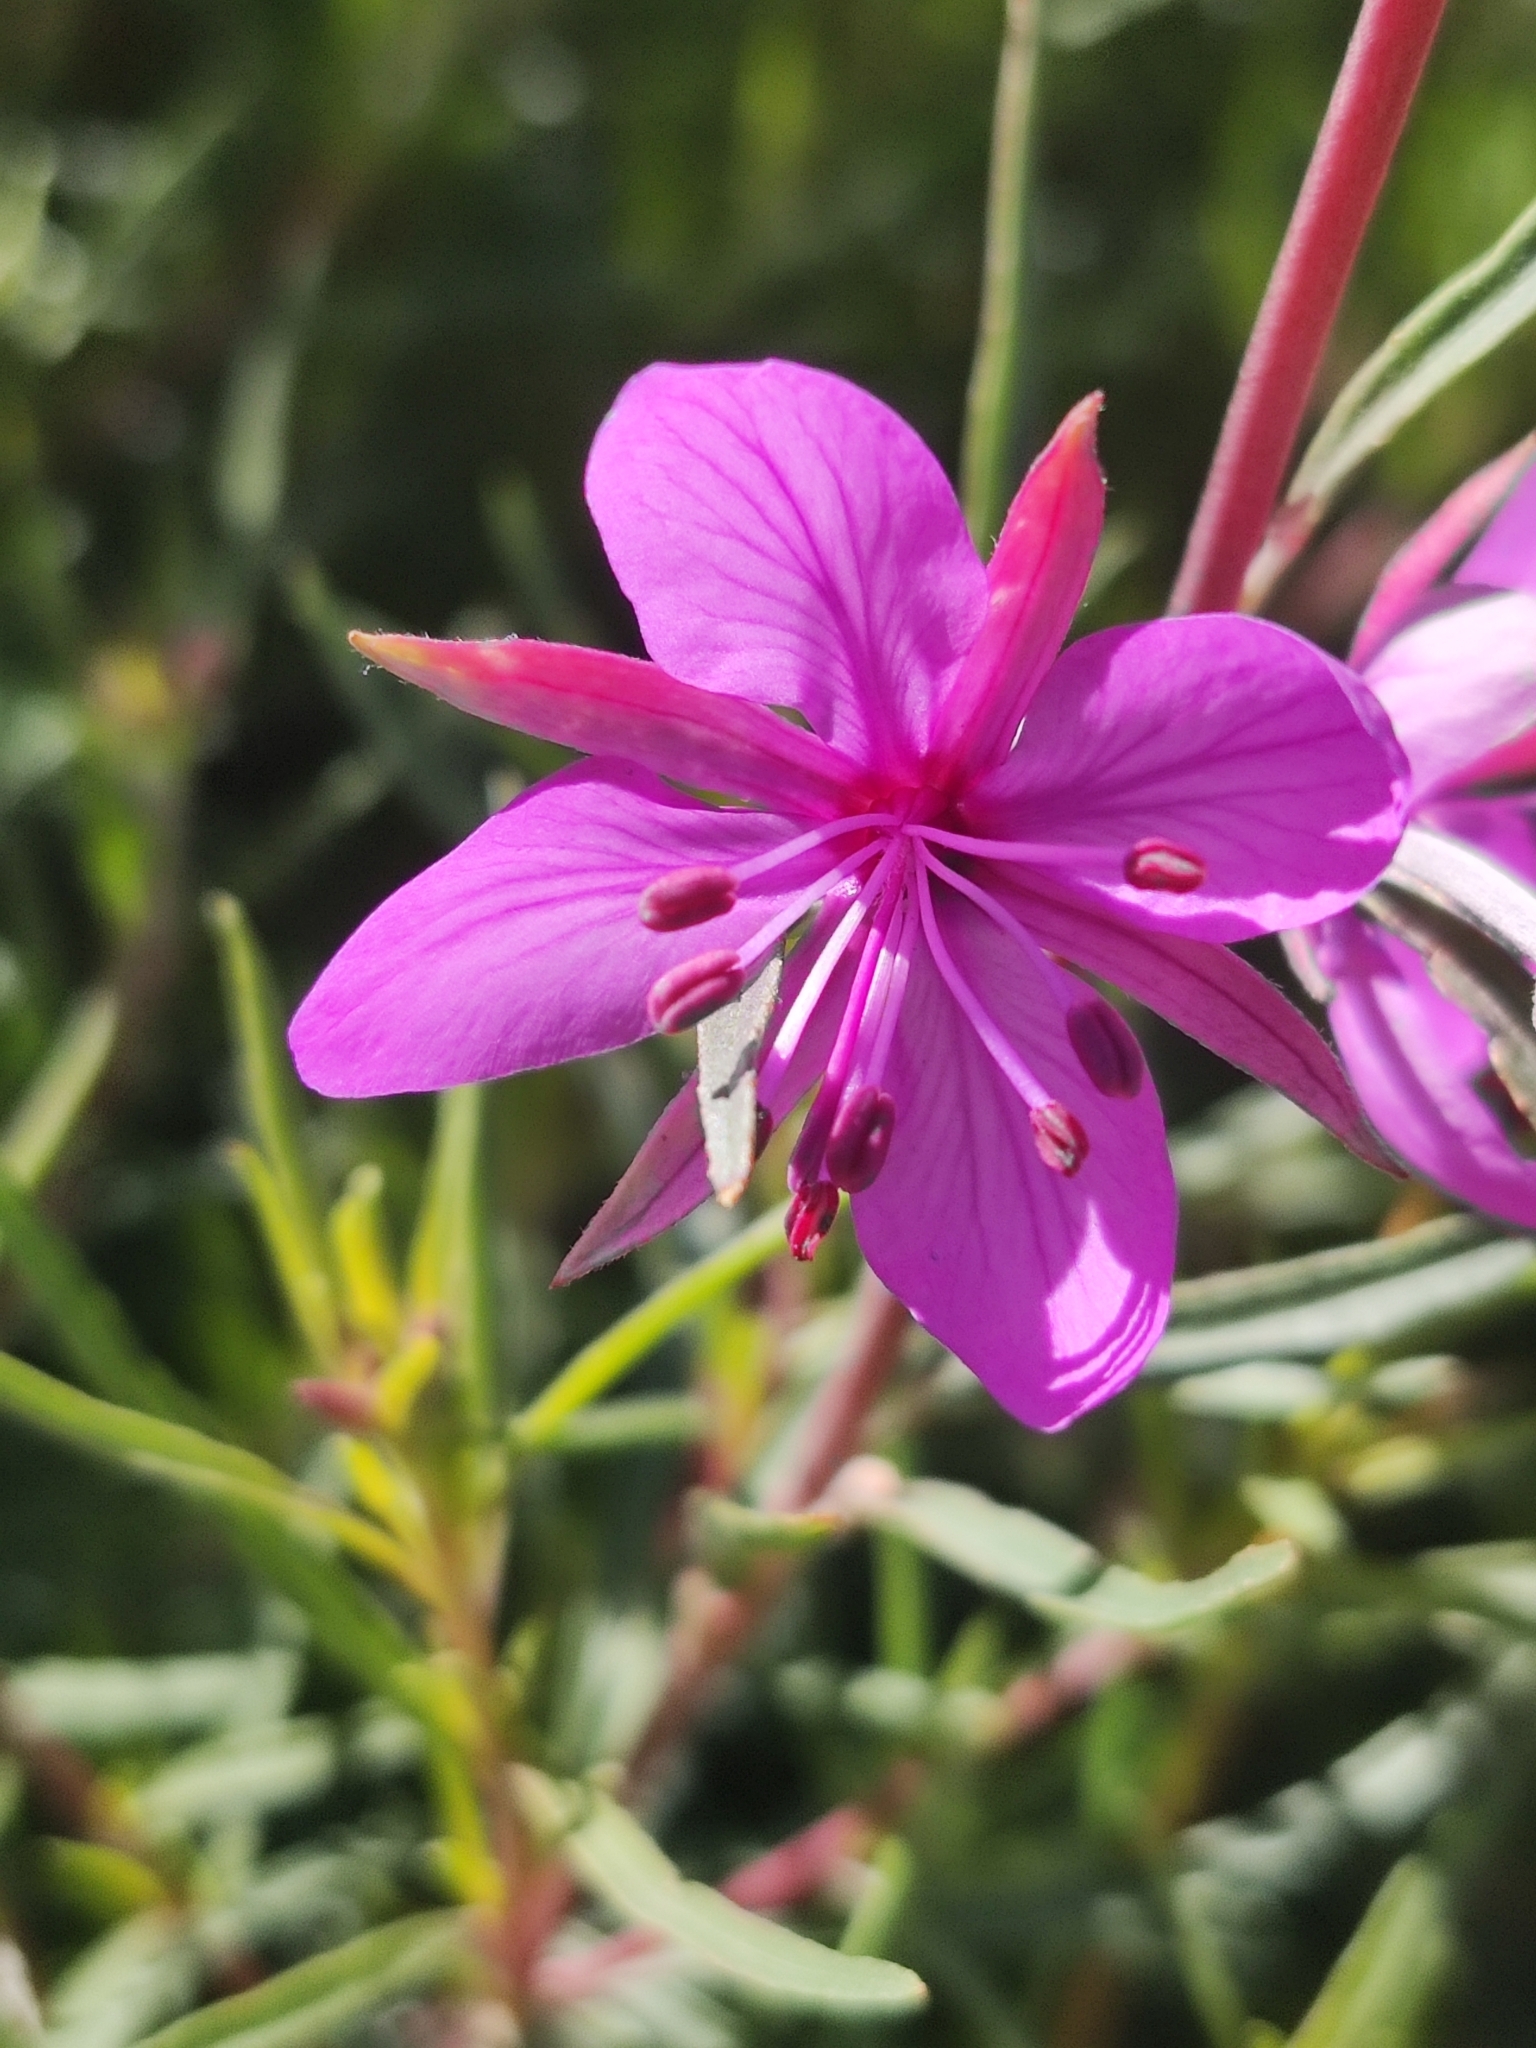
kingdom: Plantae
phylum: Tracheophyta
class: Magnoliopsida
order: Myrtales
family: Onagraceae
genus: Chamaenerion
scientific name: Chamaenerion dodonaei
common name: Rosemary-leaved willowherb
